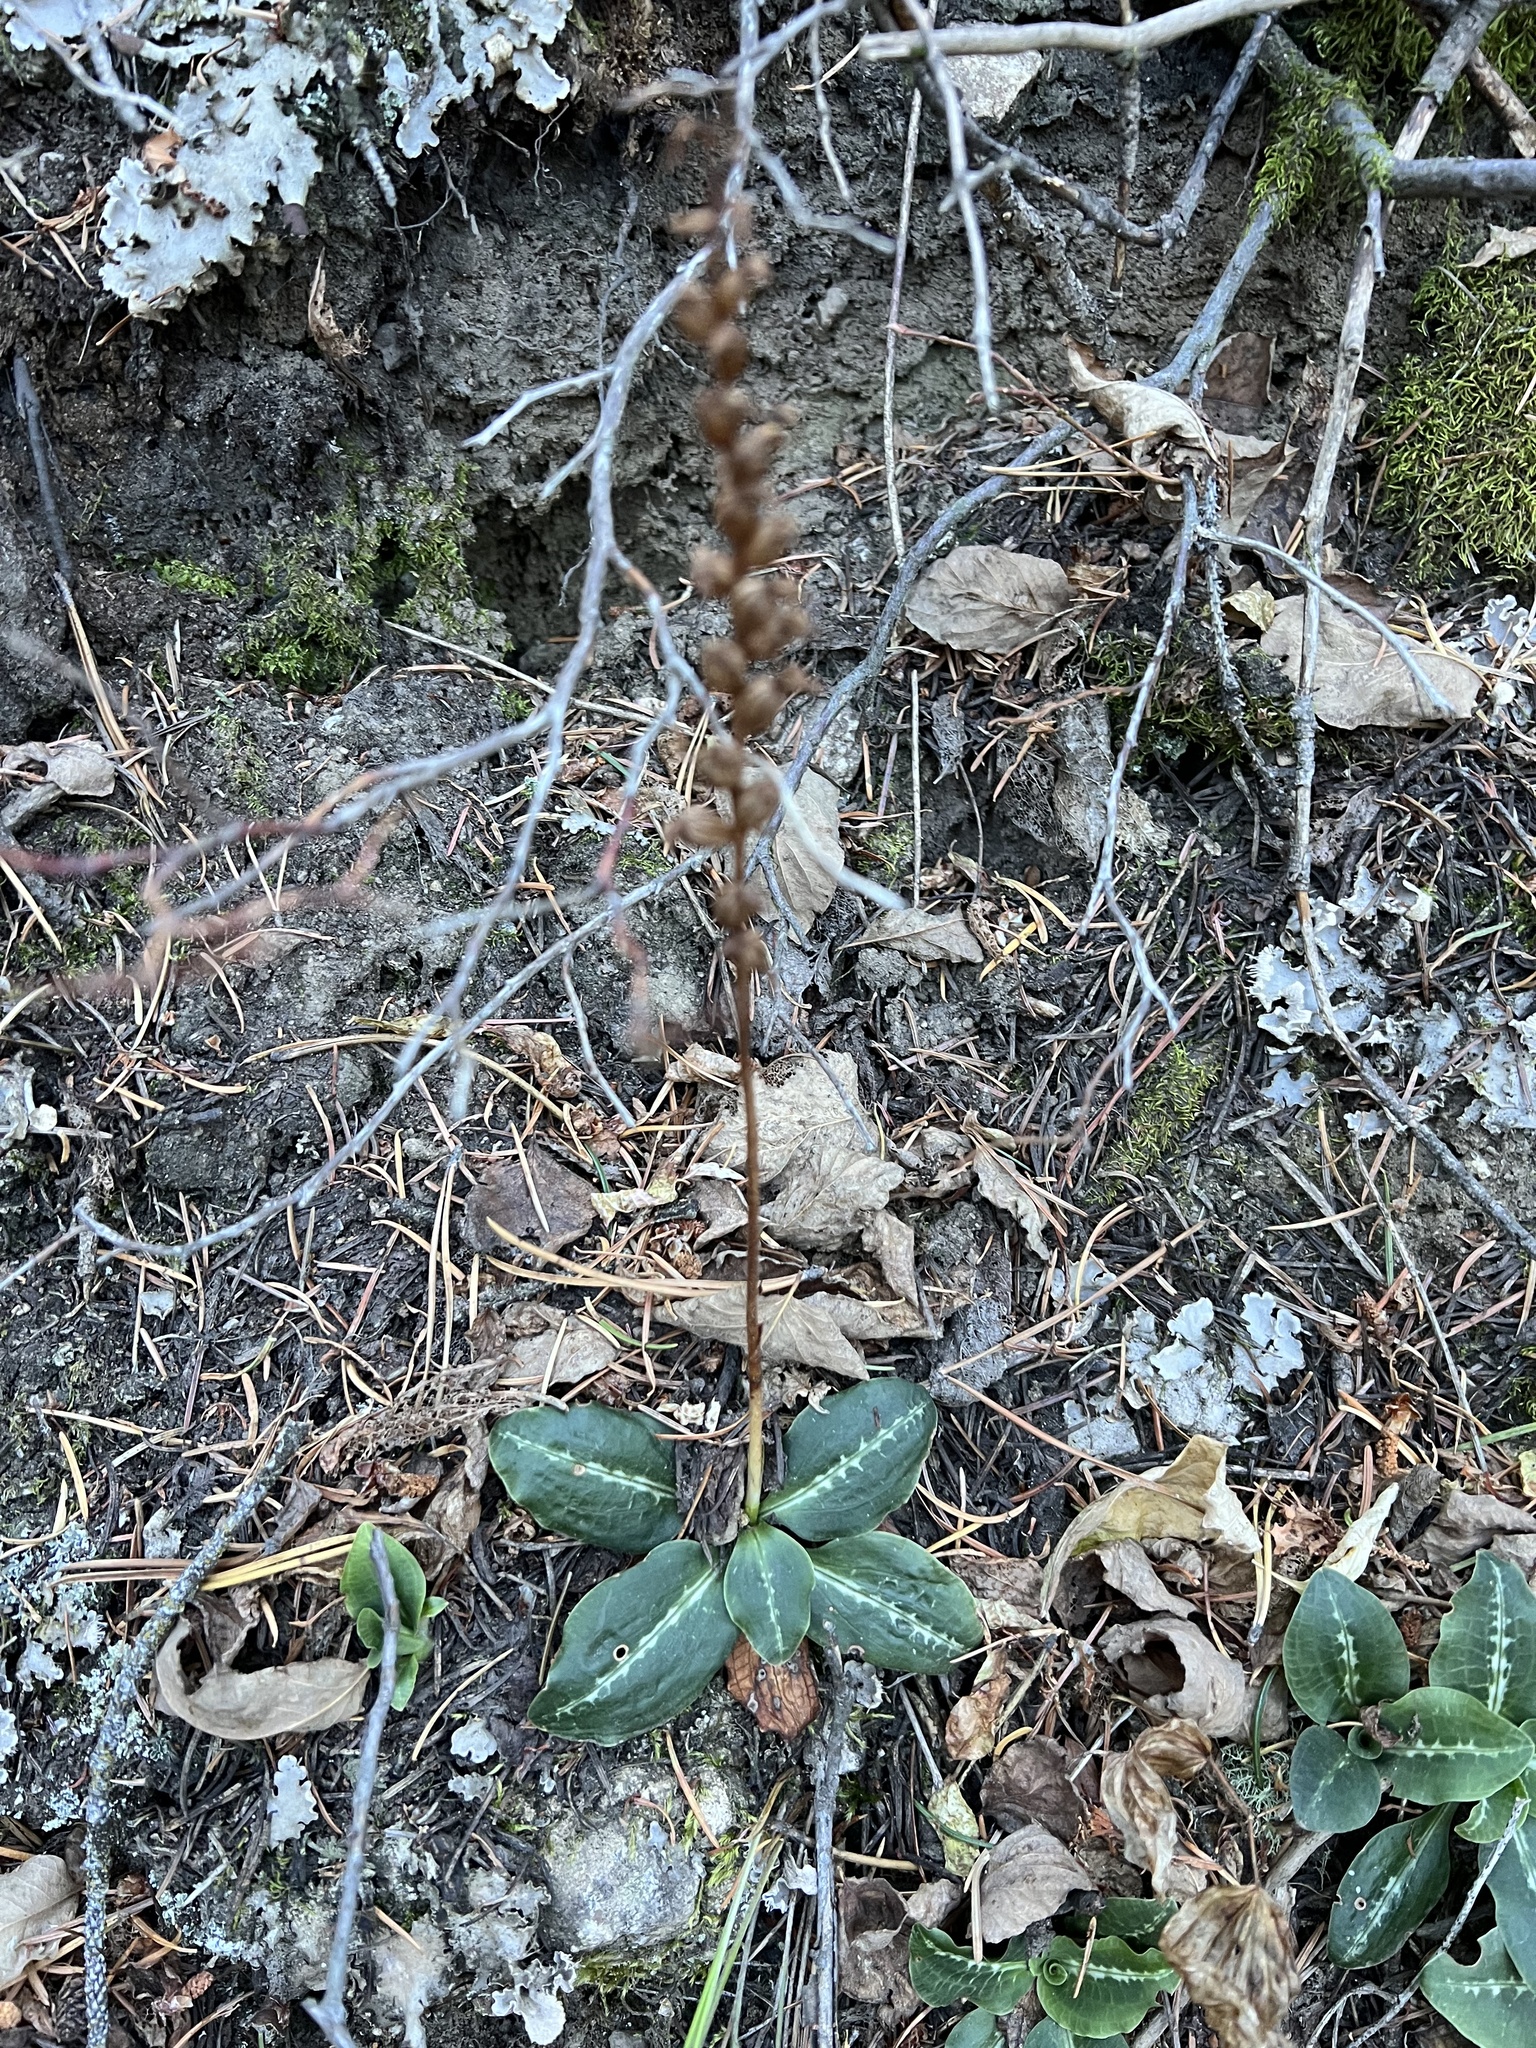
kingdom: Plantae
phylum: Tracheophyta
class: Liliopsida
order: Asparagales
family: Orchidaceae
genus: Goodyera
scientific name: Goodyera oblongifolia
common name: Giant rattlesnake-plantain
